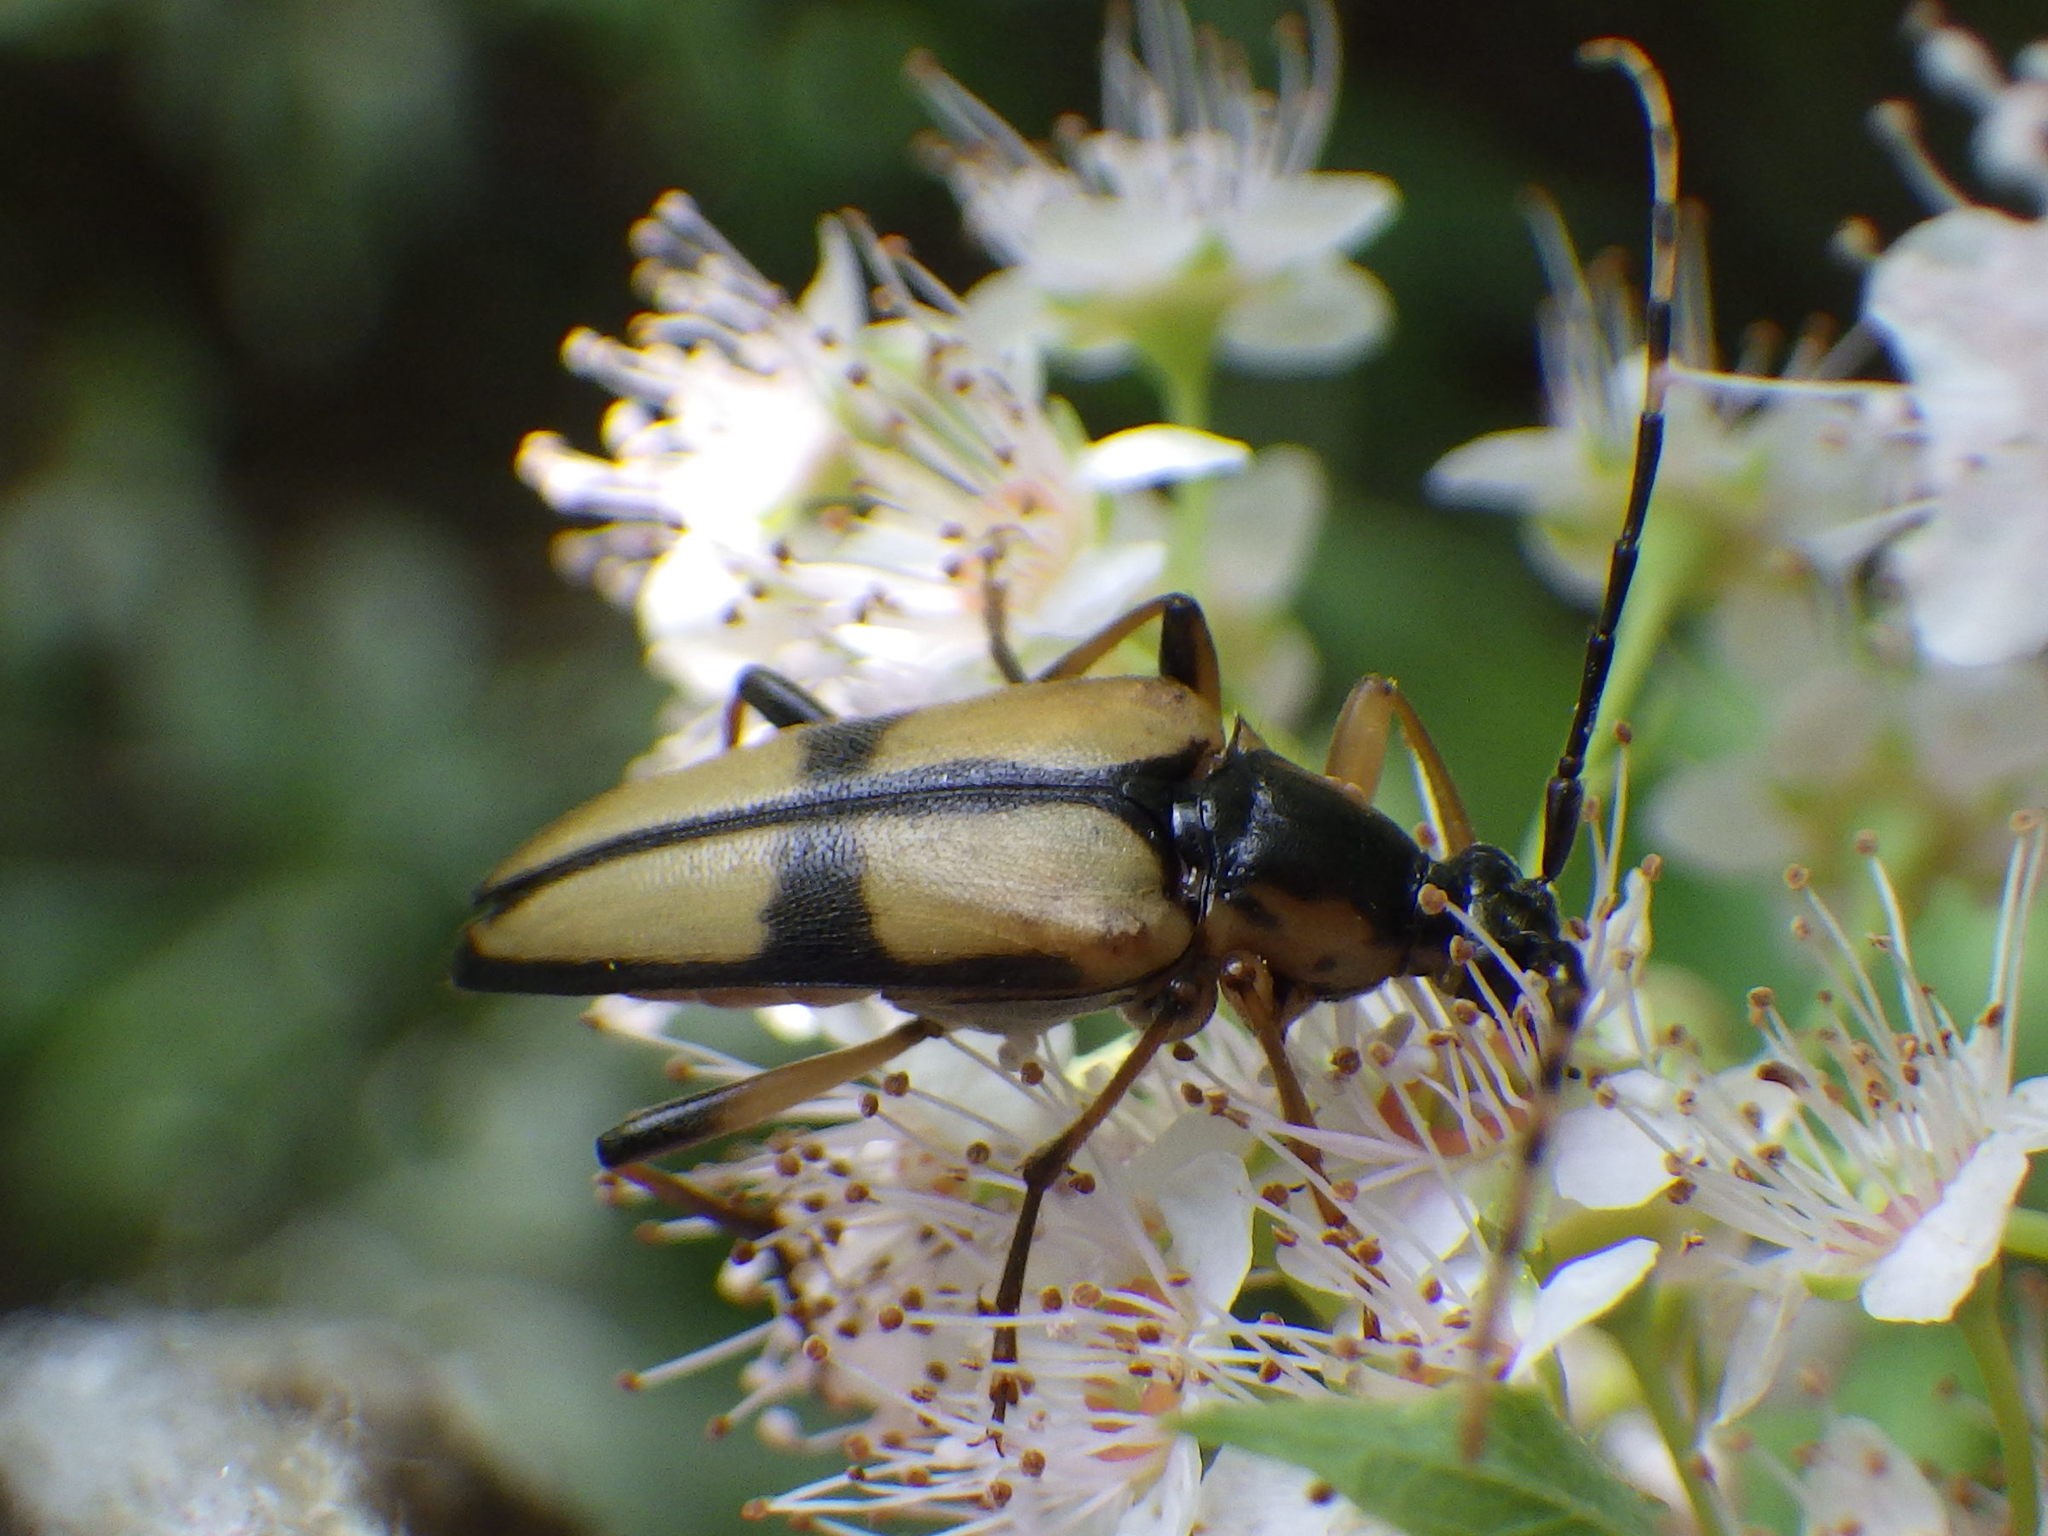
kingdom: Animalia
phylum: Arthropoda
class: Insecta
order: Coleoptera
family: Cerambycidae
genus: Etorofus
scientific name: Etorofus
